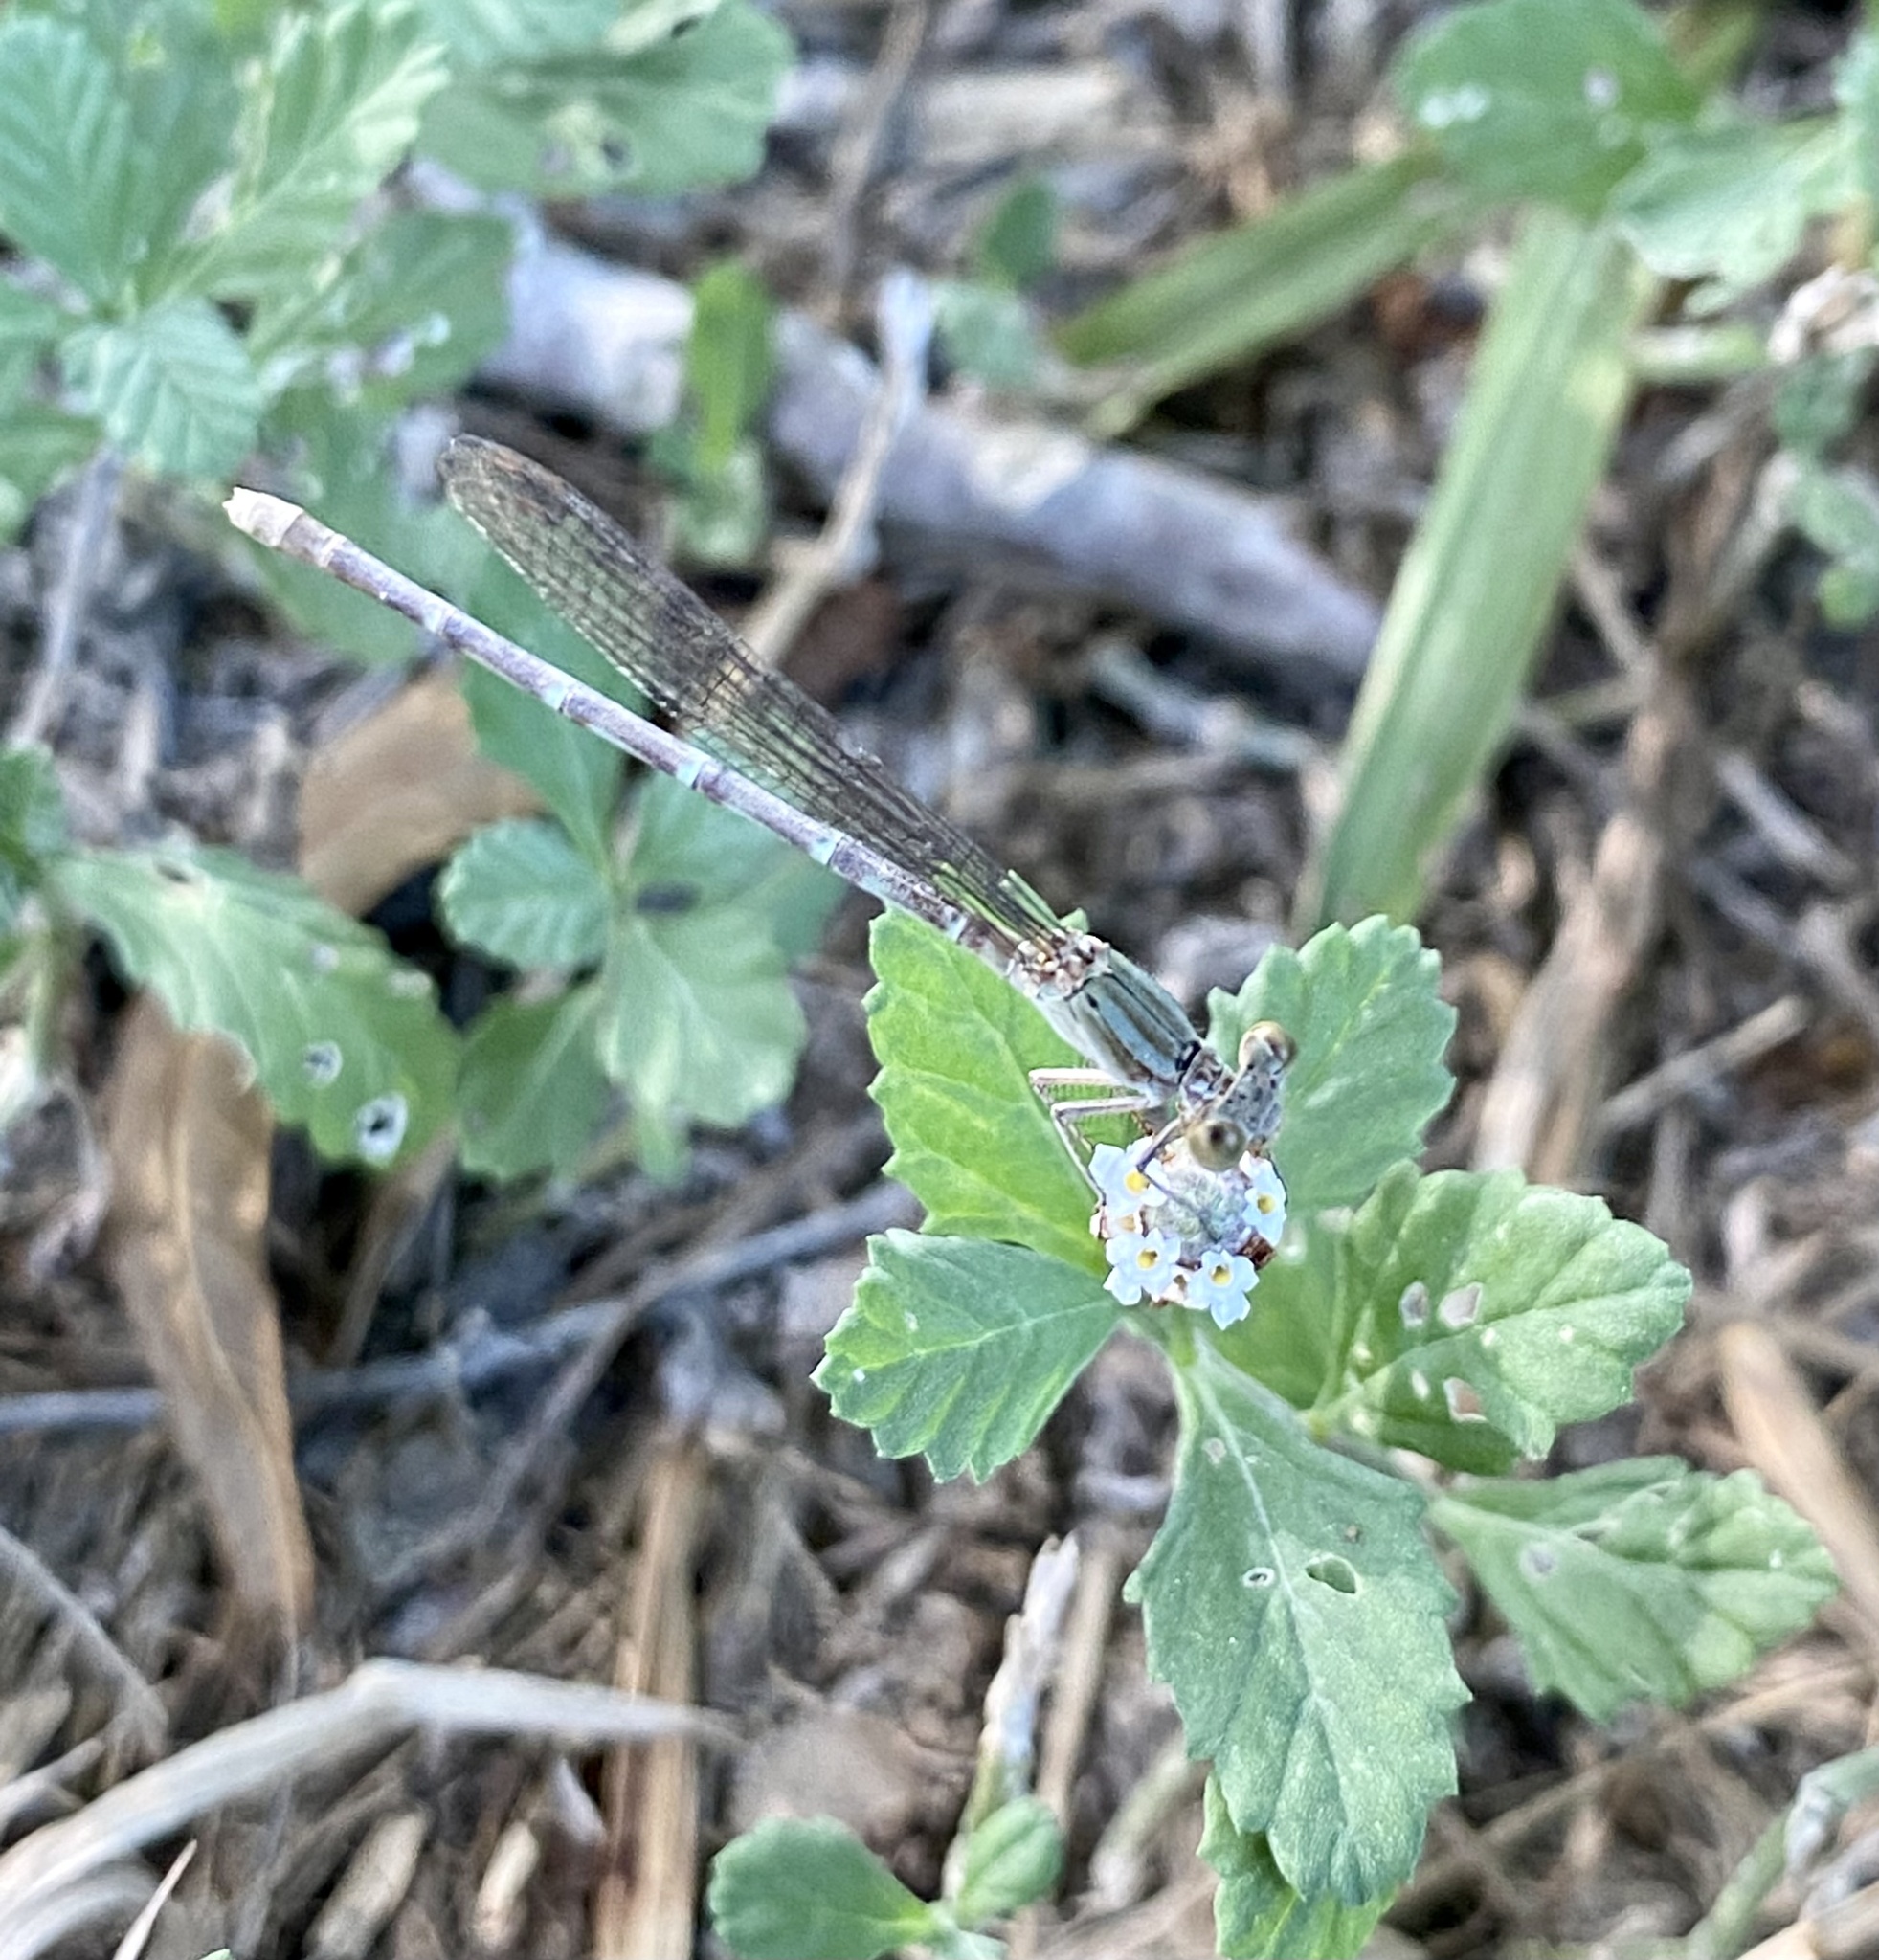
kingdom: Animalia
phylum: Arthropoda
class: Insecta
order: Odonata
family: Coenagrionidae
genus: Argia
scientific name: Argia sedula
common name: Blue-ringed dancer
